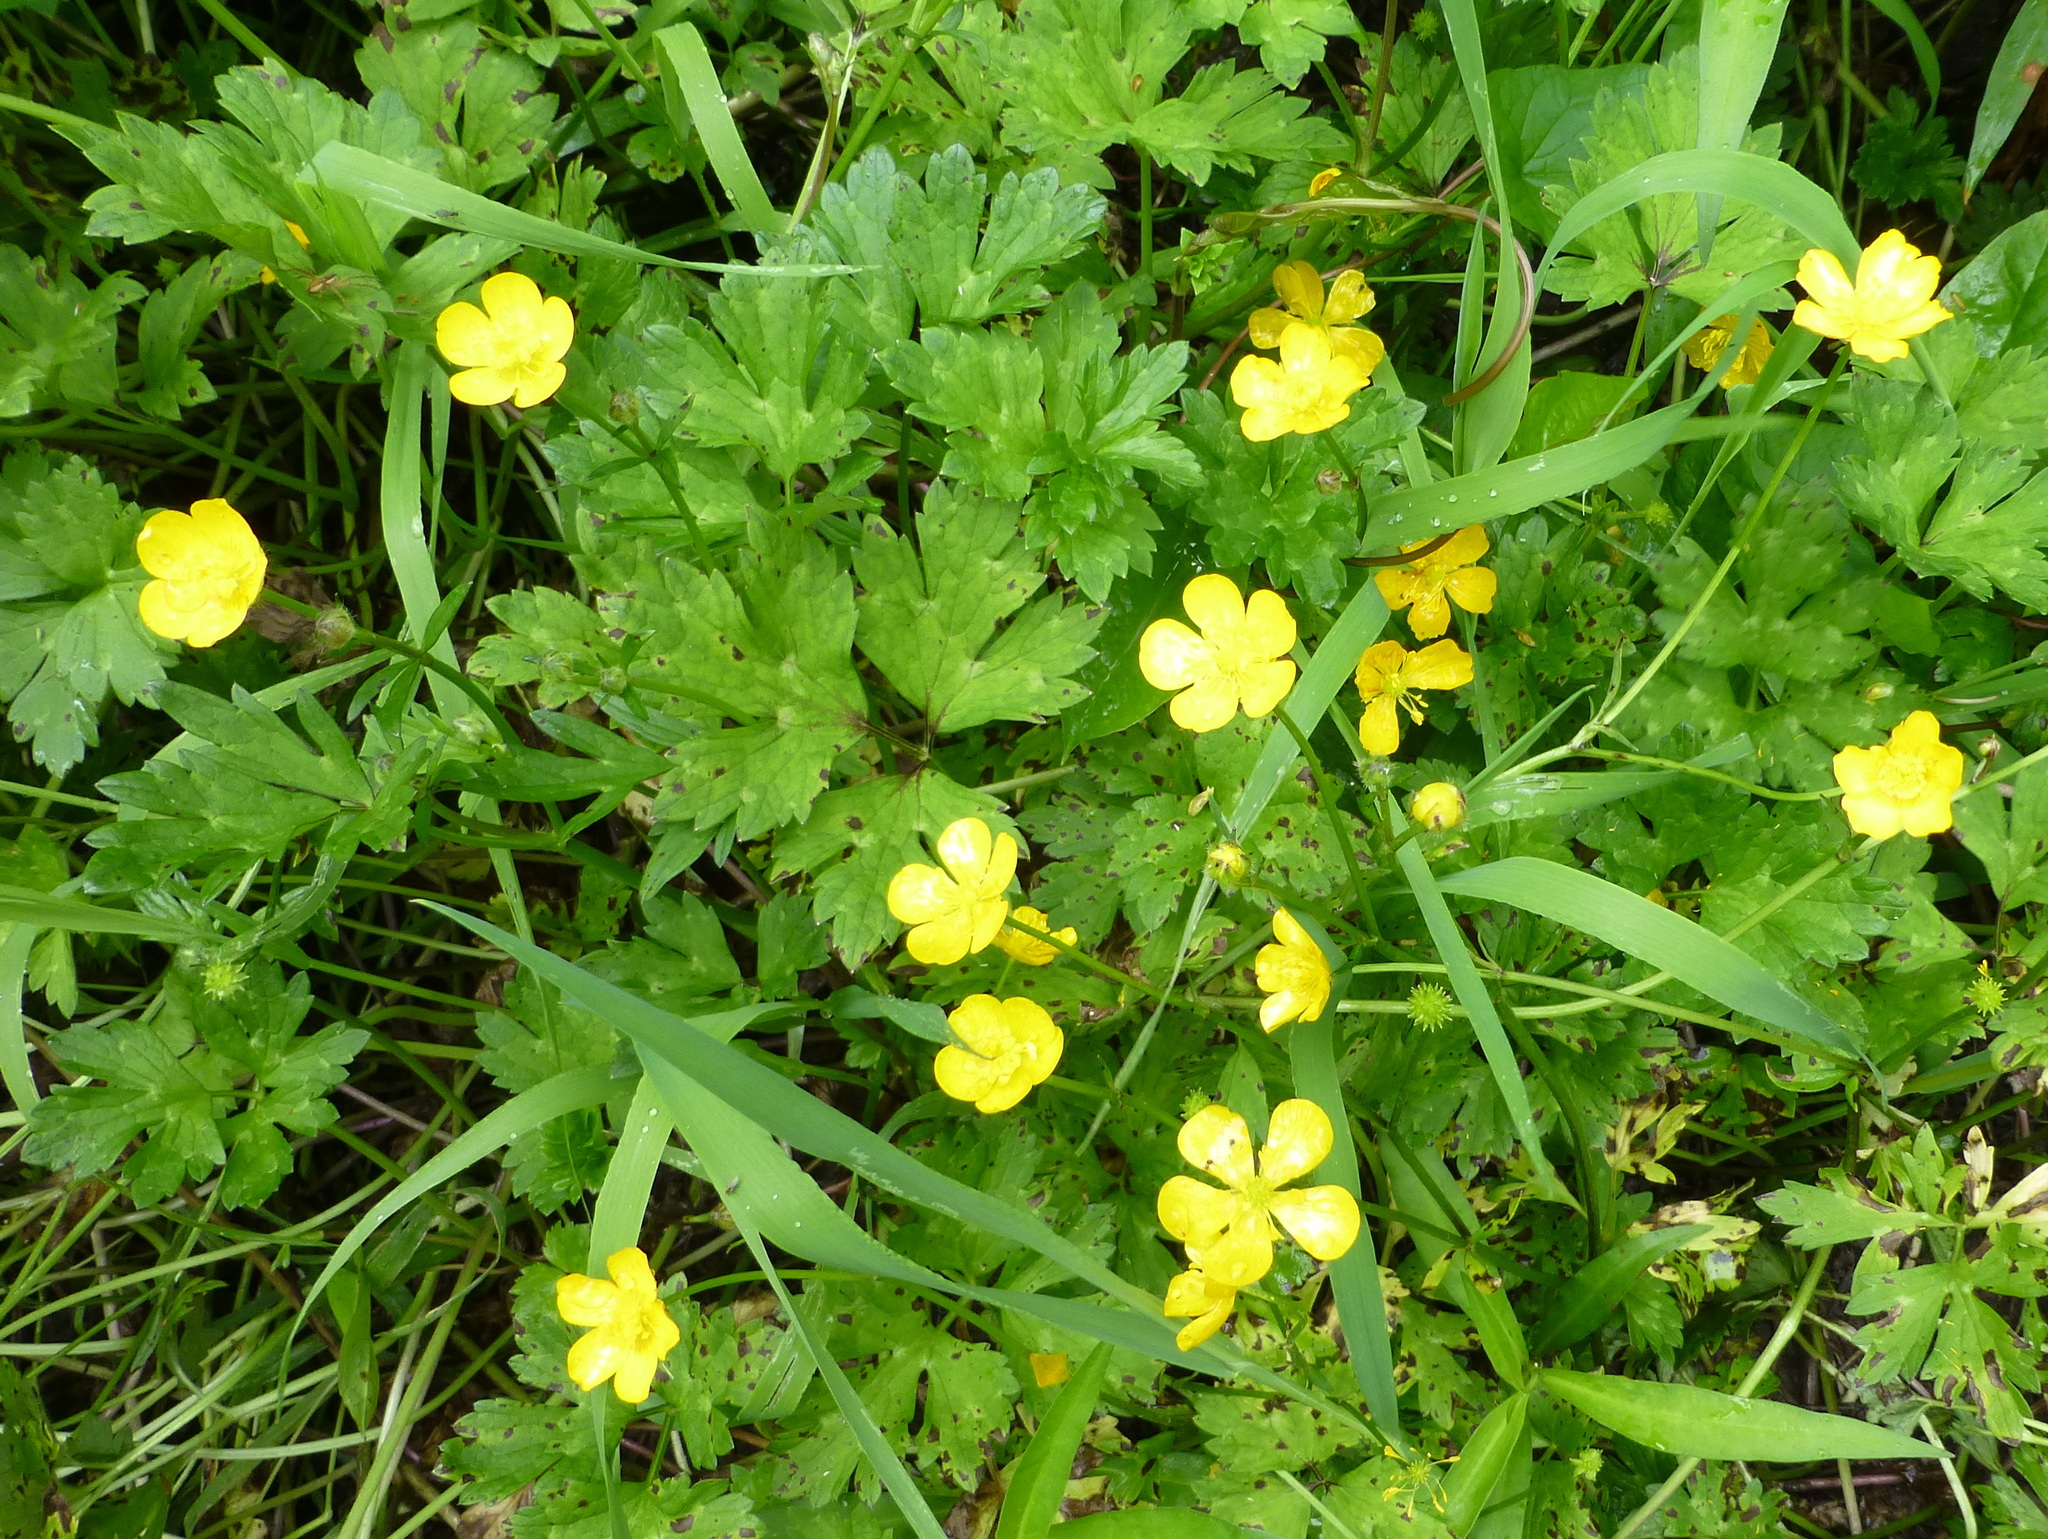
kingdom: Plantae
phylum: Tracheophyta
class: Magnoliopsida
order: Ranunculales
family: Ranunculaceae
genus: Ranunculus
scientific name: Ranunculus repens
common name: Creeping buttercup
